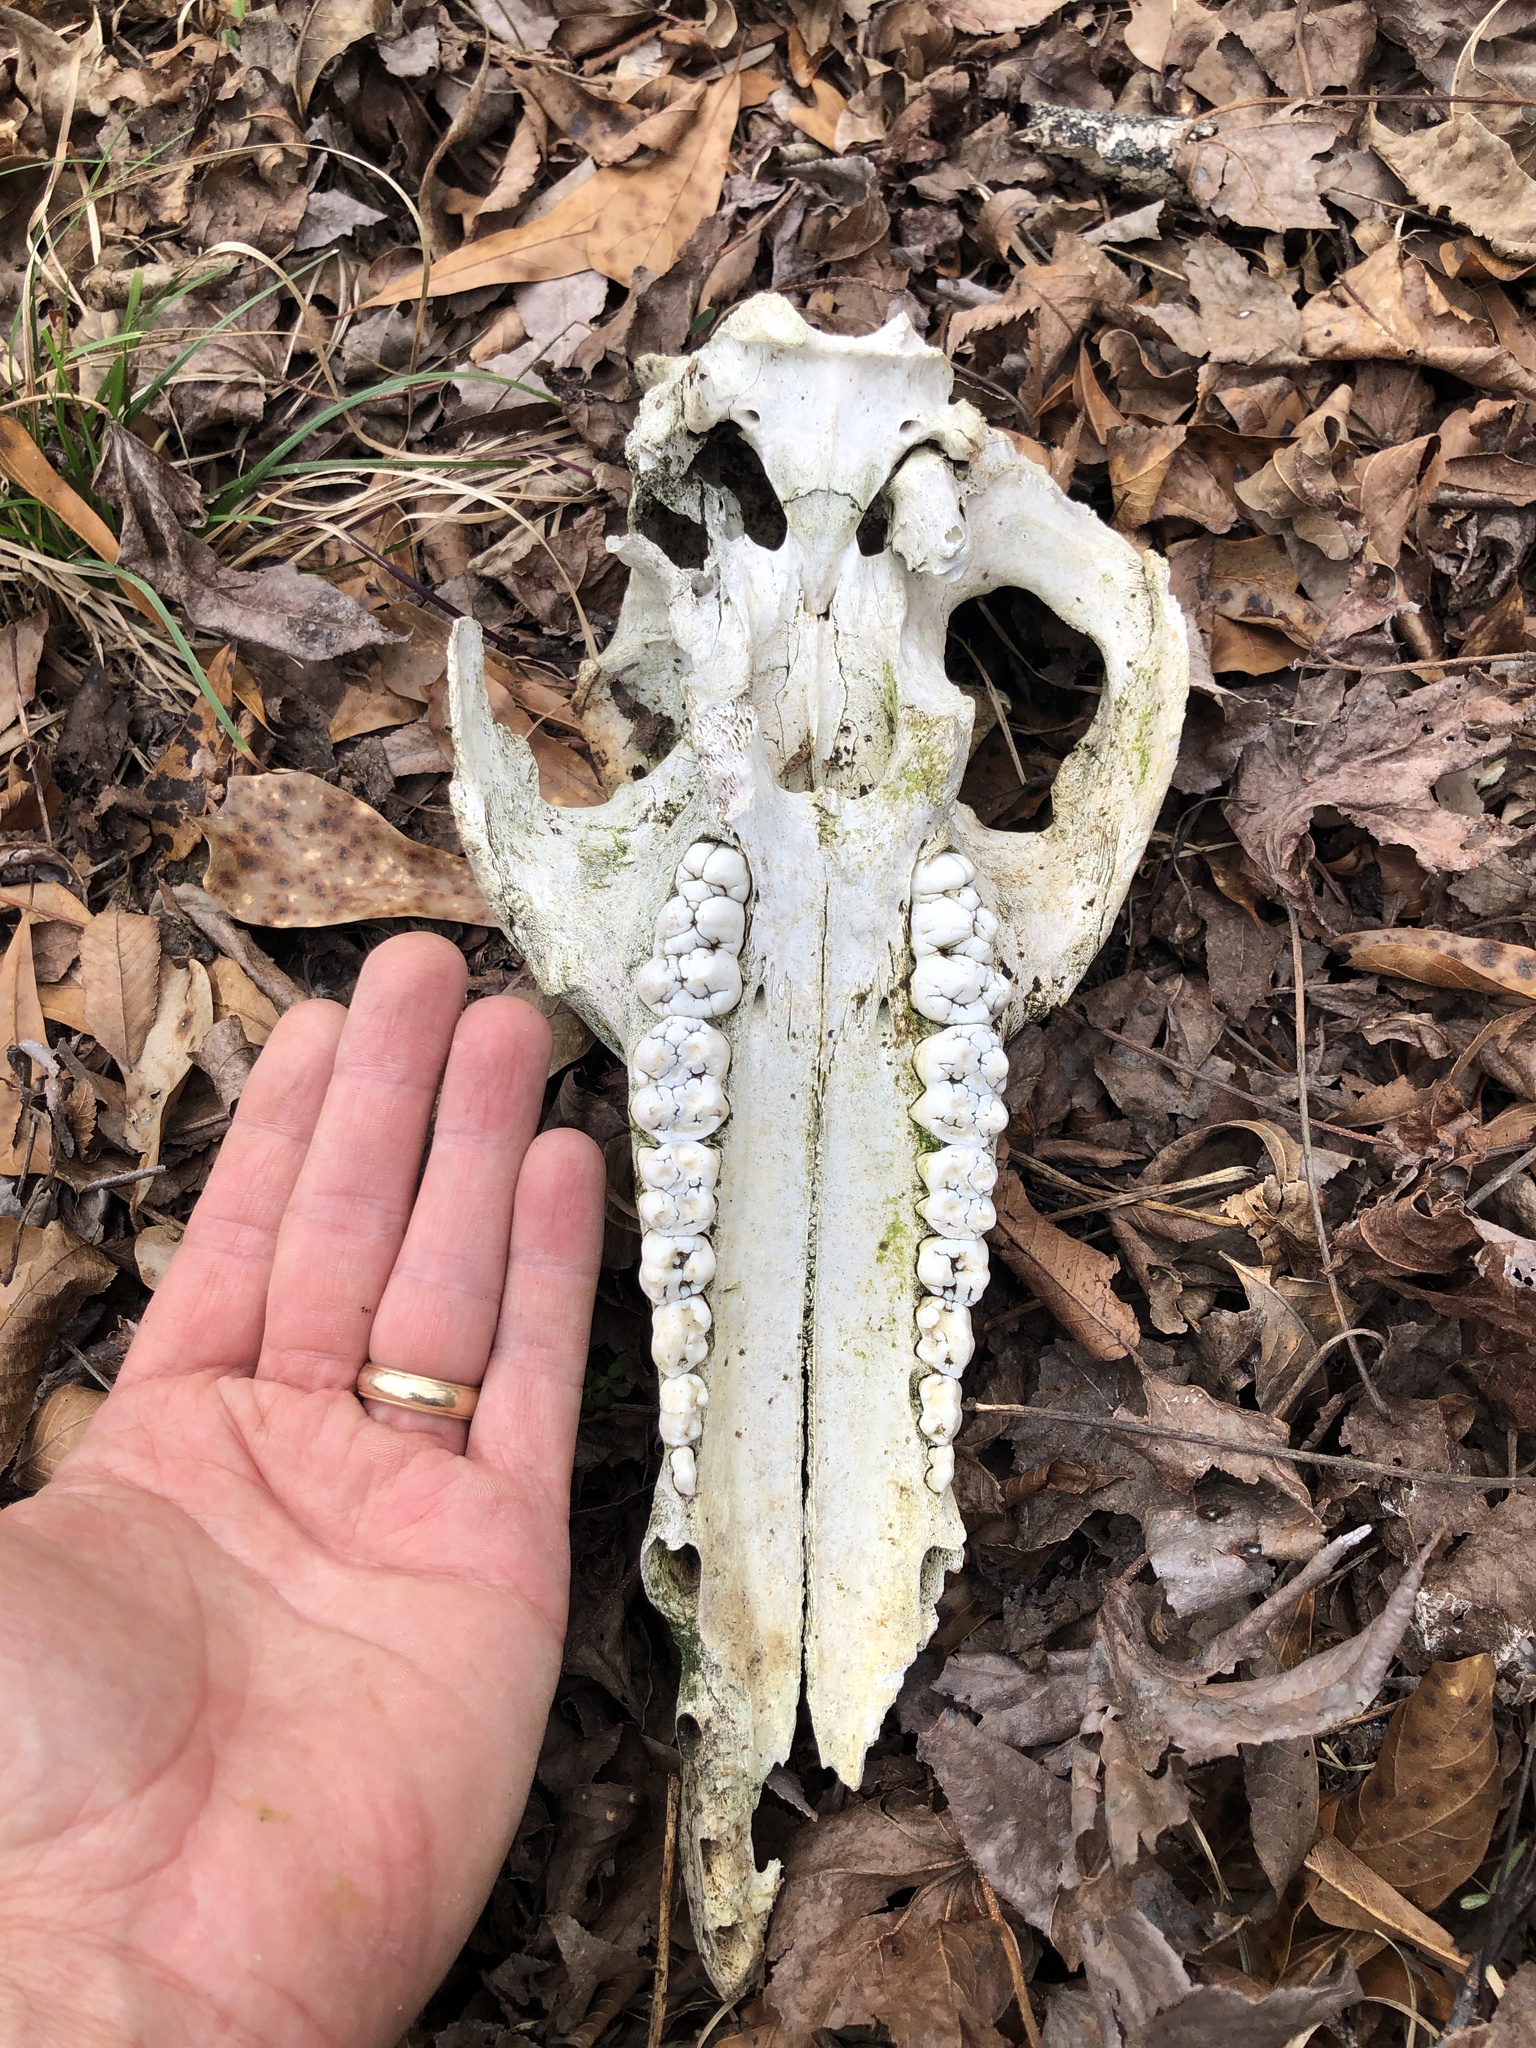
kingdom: Animalia
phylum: Chordata
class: Mammalia
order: Artiodactyla
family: Suidae
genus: Sus
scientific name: Sus scrofa
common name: Wild boar
